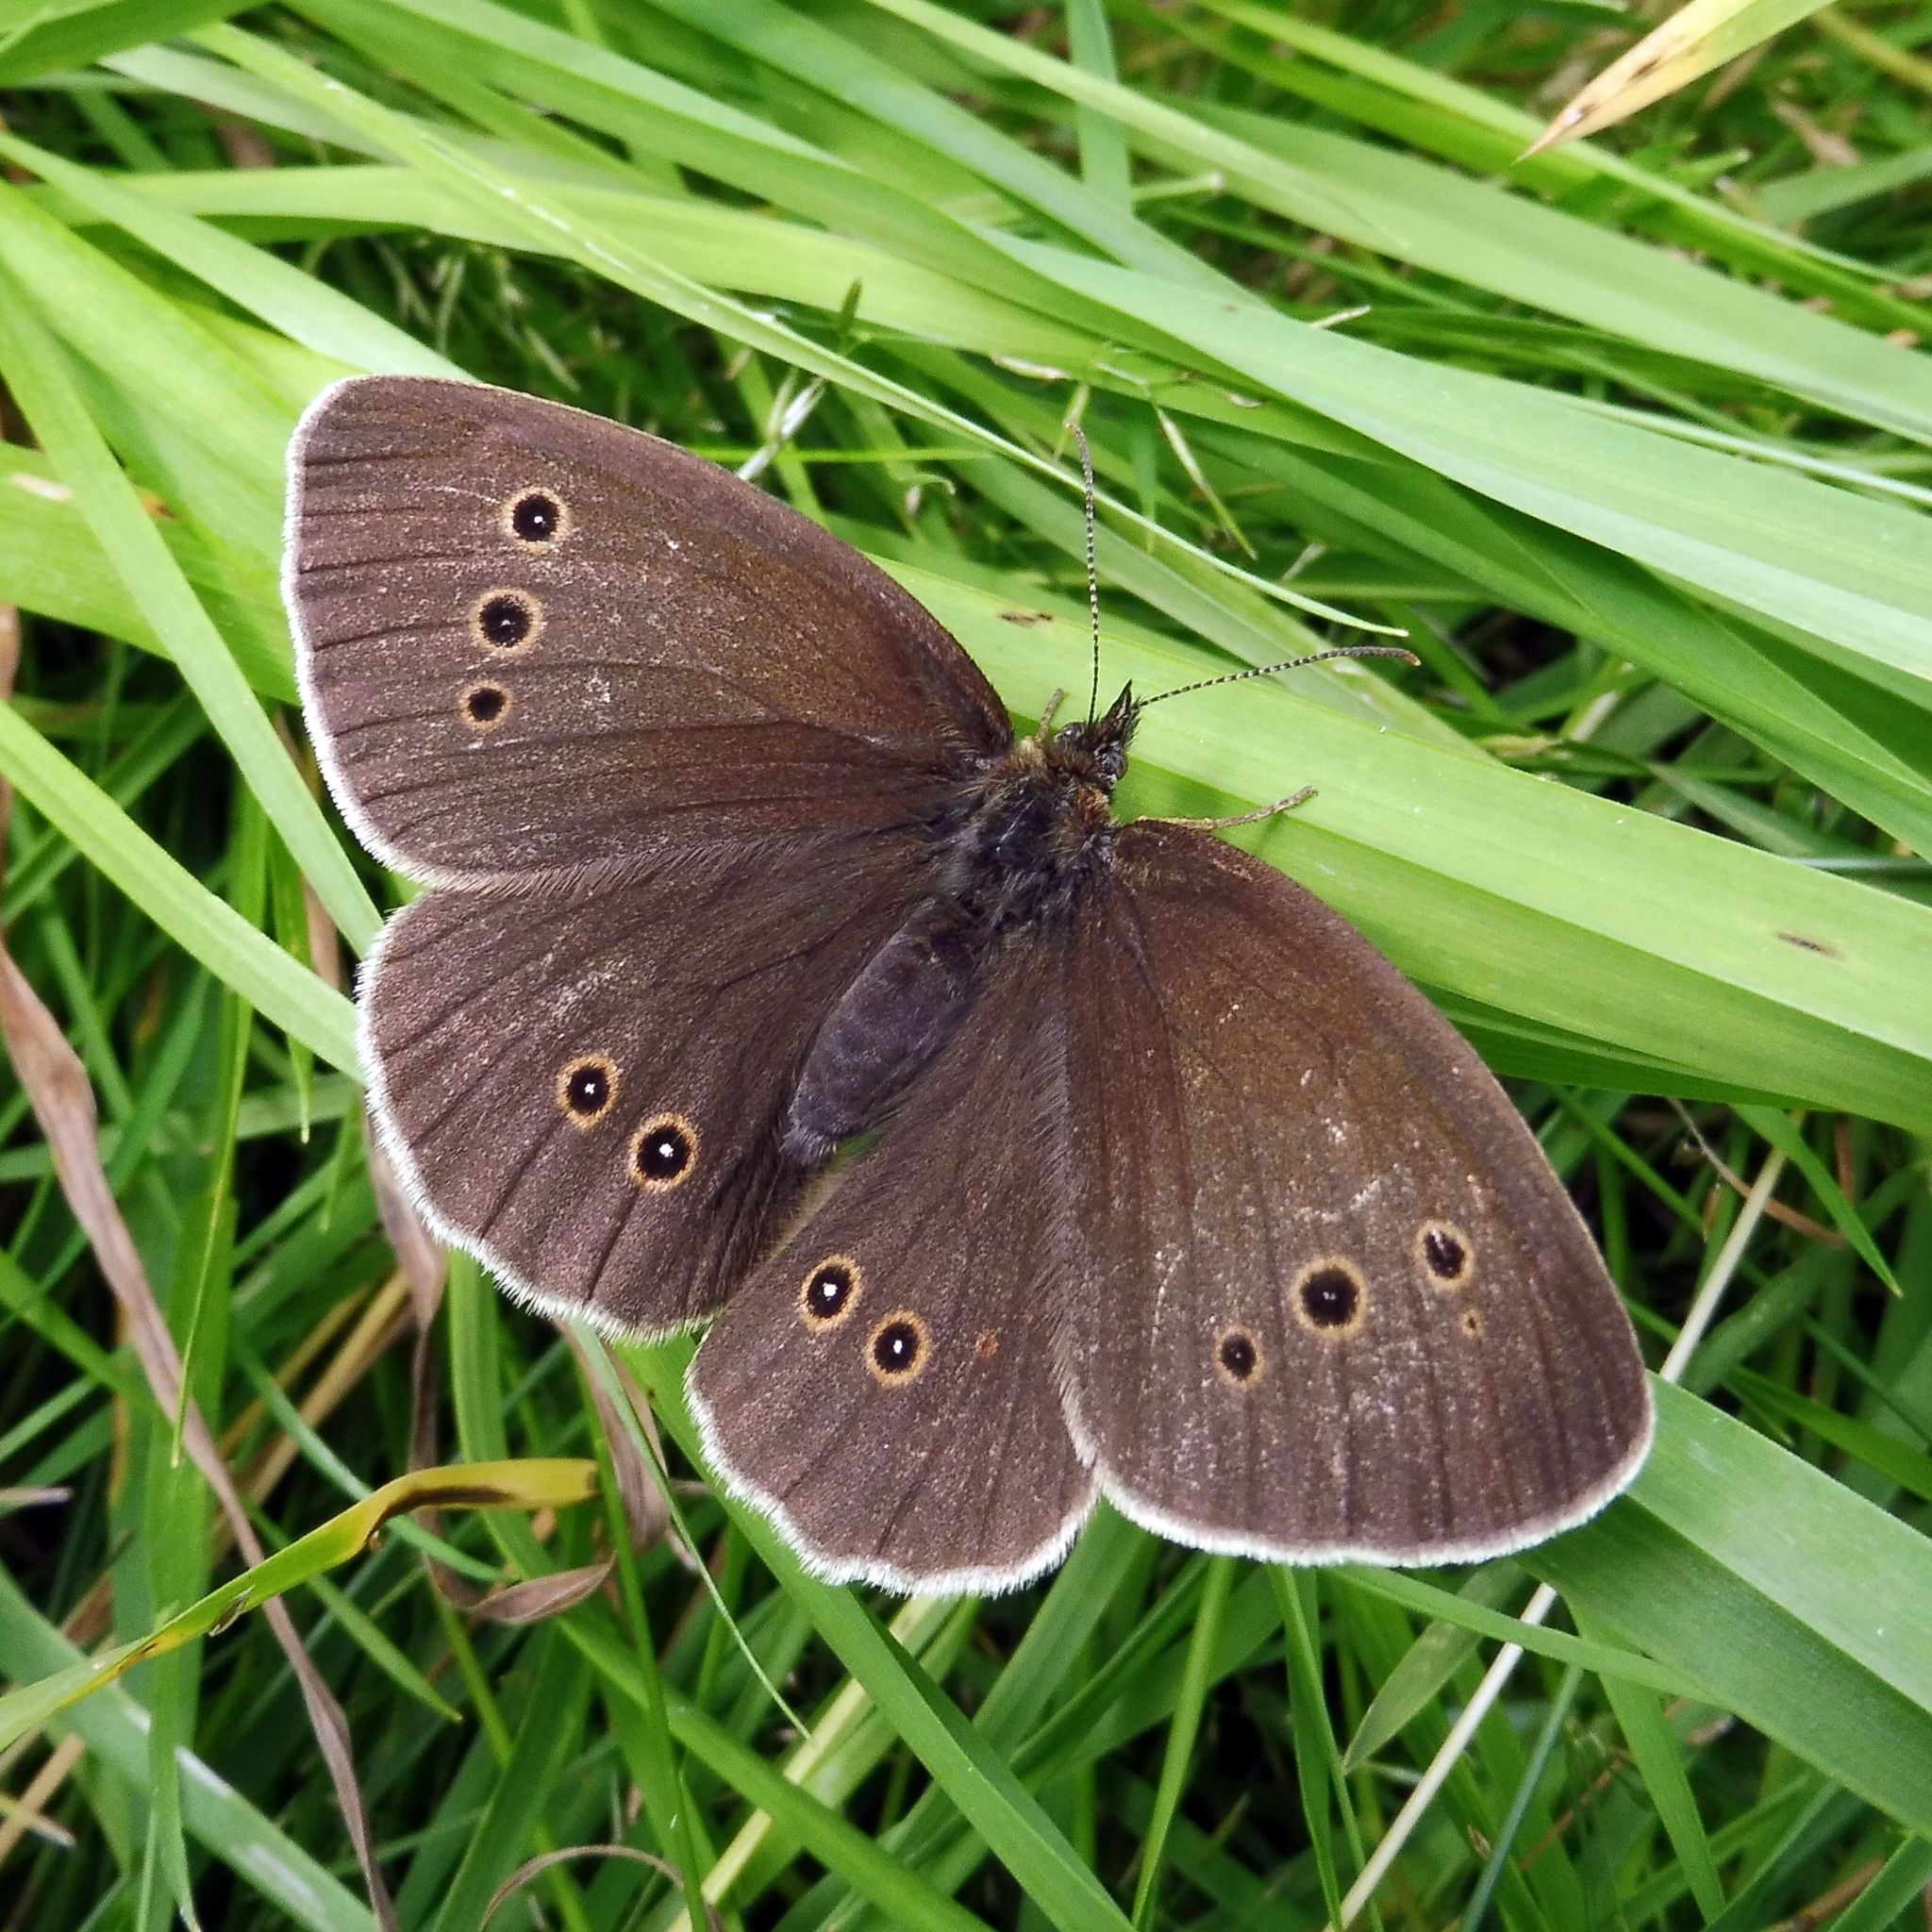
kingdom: Animalia
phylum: Arthropoda
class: Insecta
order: Lepidoptera
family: Nymphalidae
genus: Aphantopus
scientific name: Aphantopus hyperantus
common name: Ringlet
